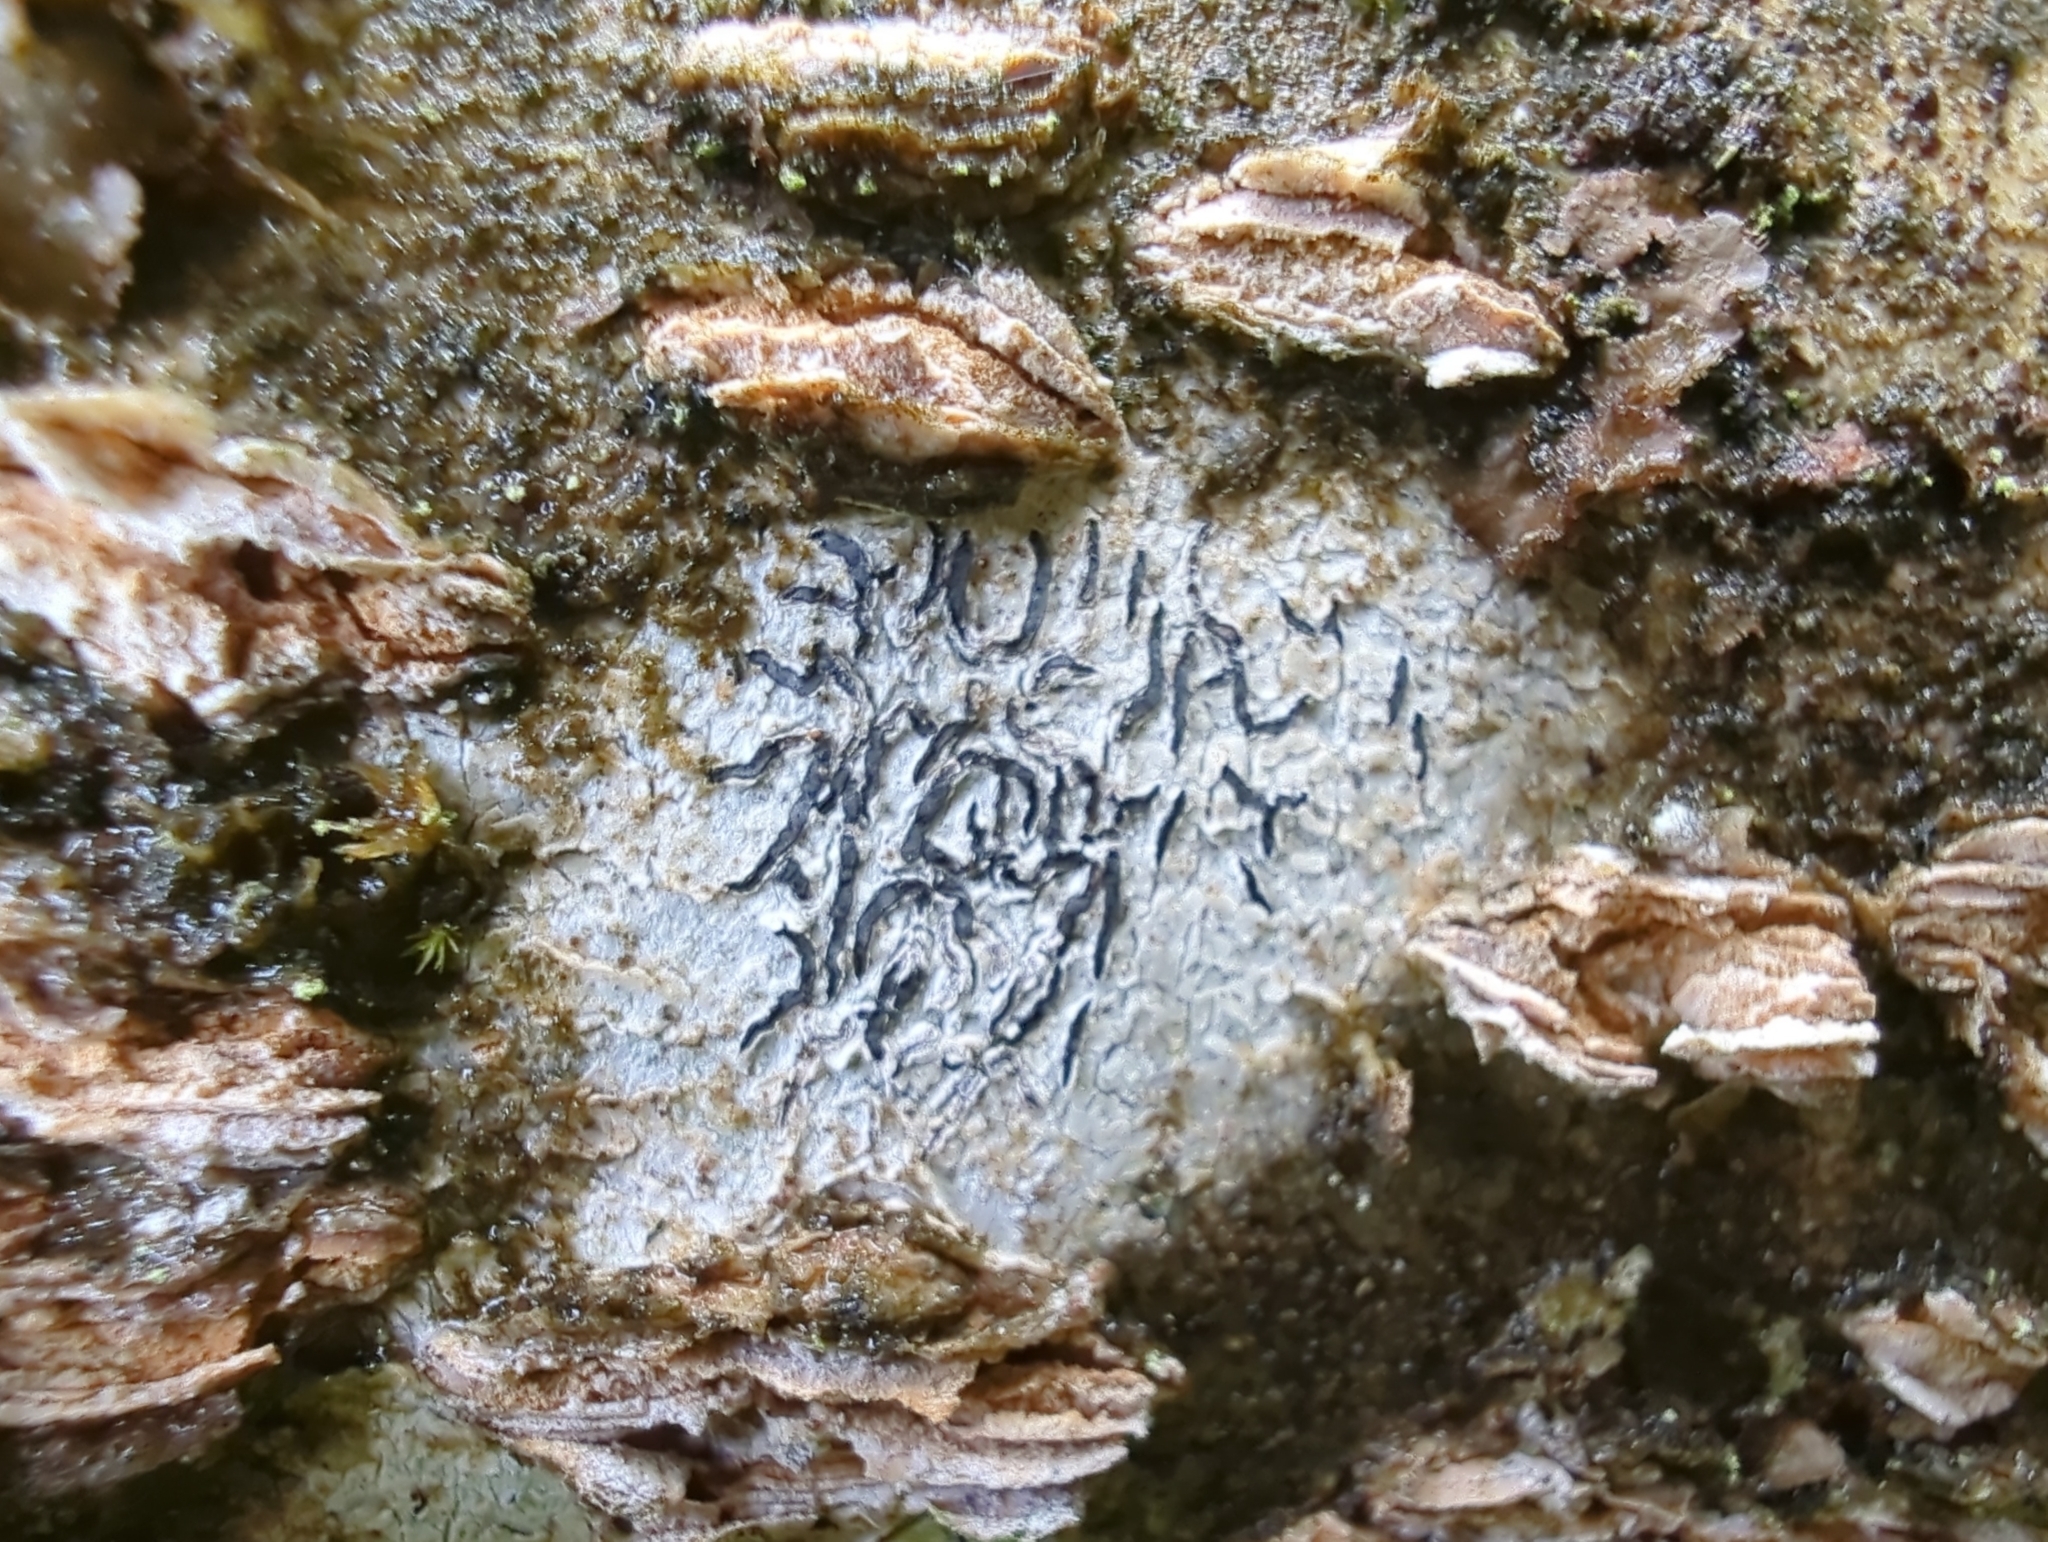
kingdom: Fungi
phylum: Ascomycota
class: Lecanoromycetes
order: Ostropales
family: Graphidaceae
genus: Graphis
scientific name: Graphis scripta
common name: Script lichen
